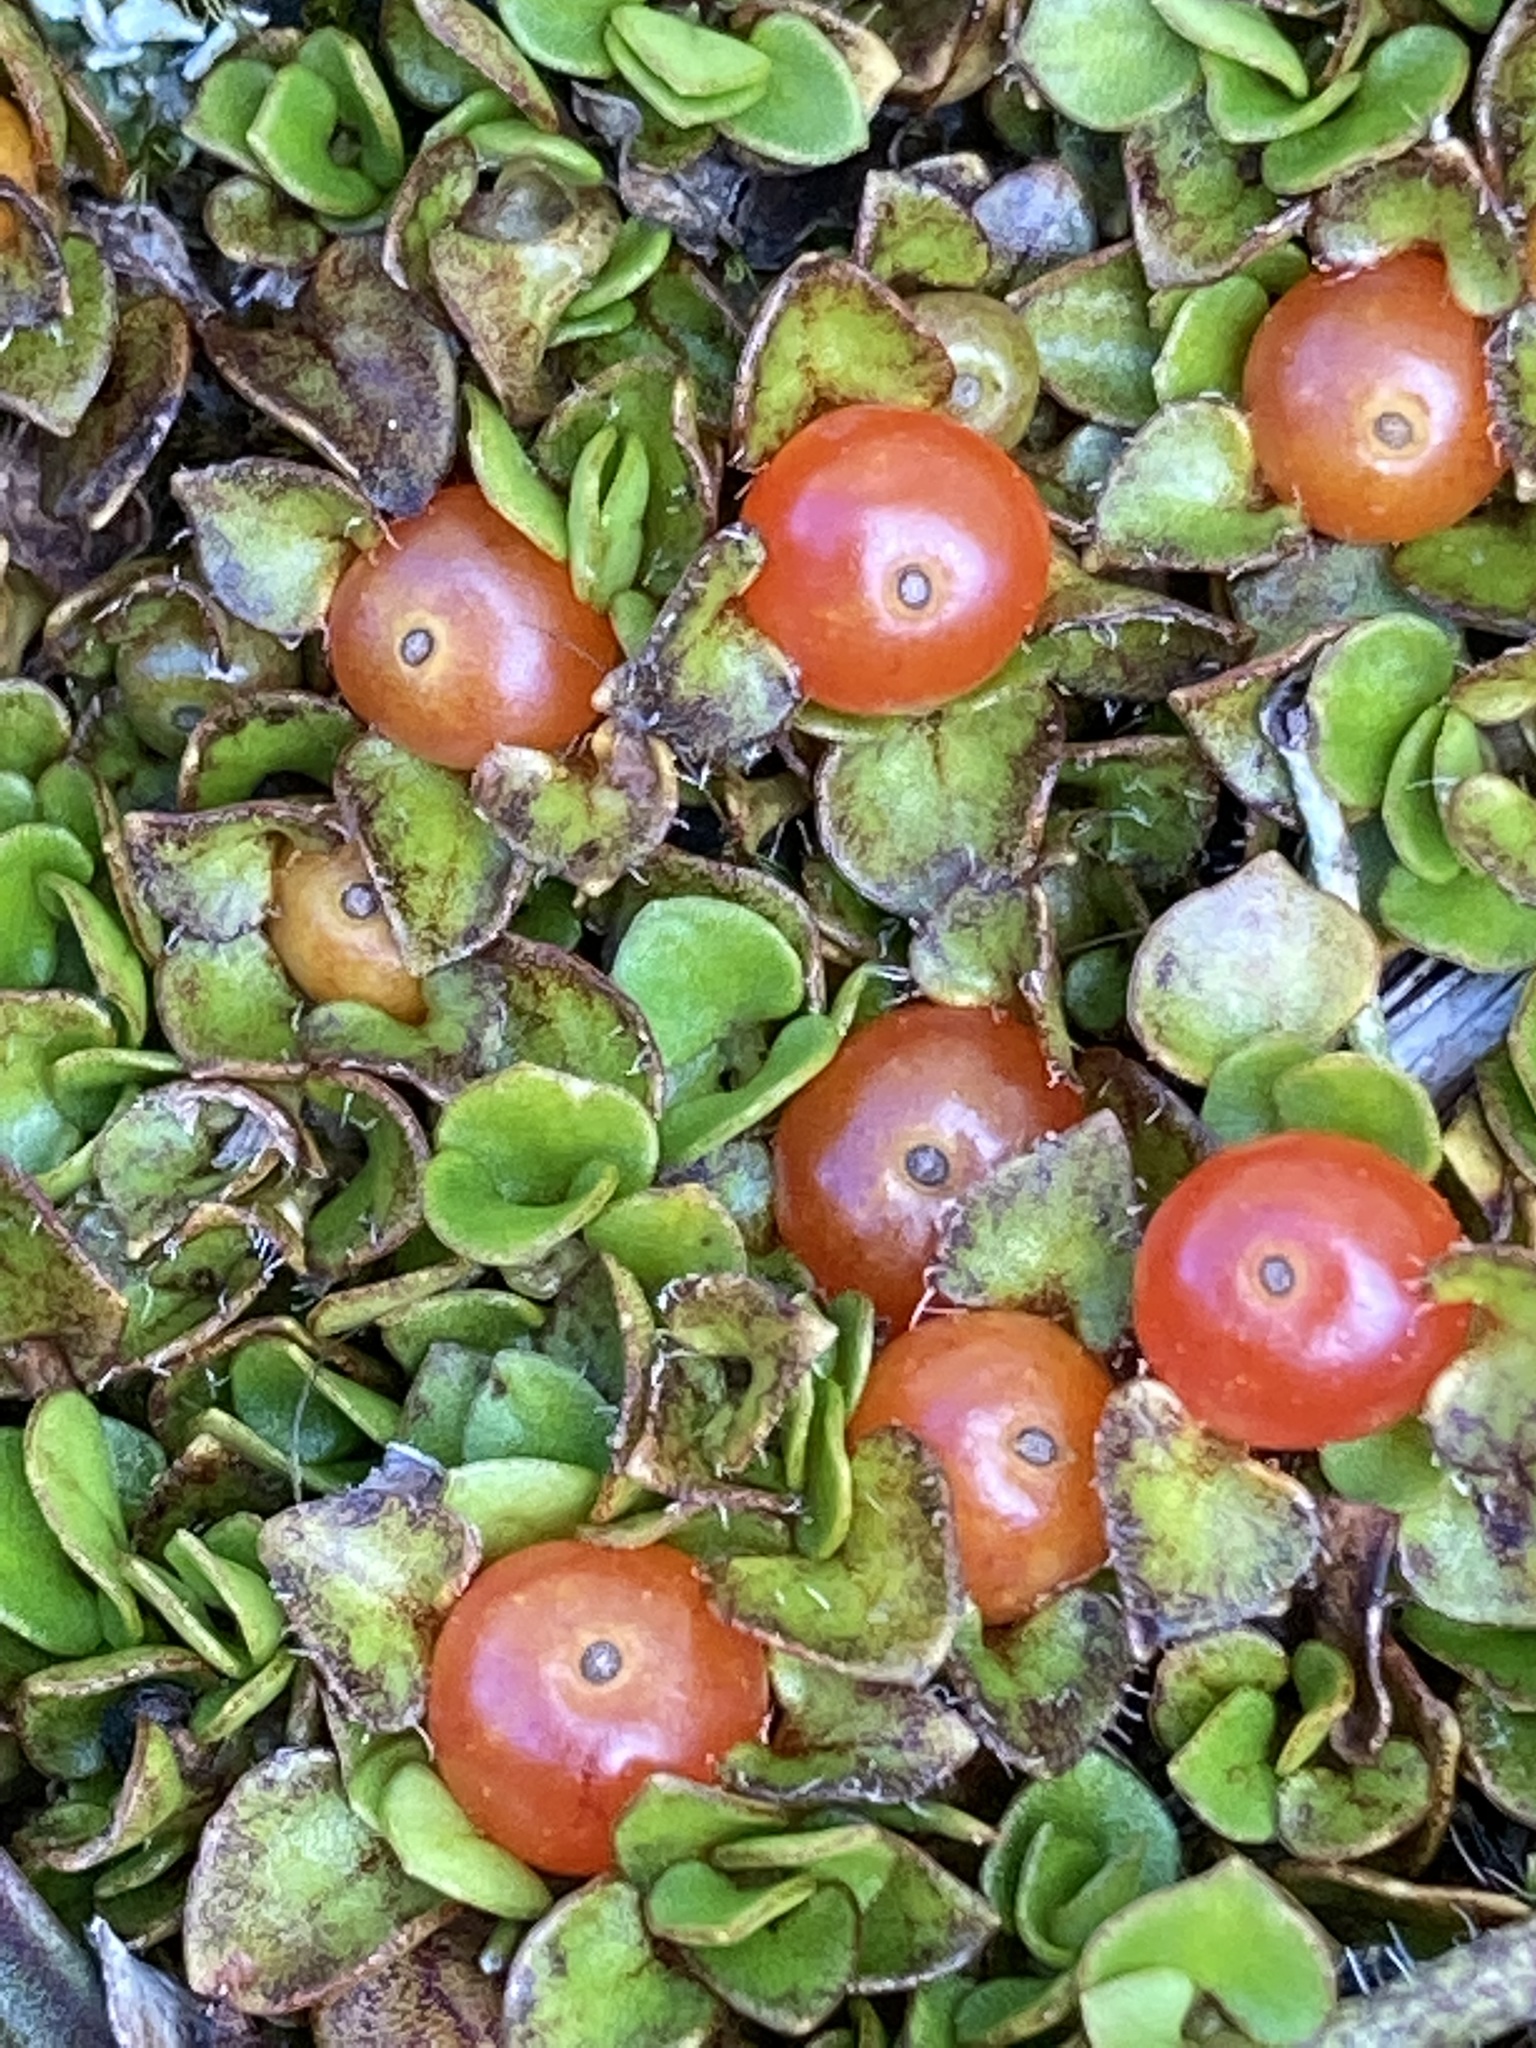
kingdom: Plantae
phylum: Tracheophyta
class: Magnoliopsida
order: Gentianales
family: Rubiaceae
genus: Nertera
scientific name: Nertera granadensis
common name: Beadplant
